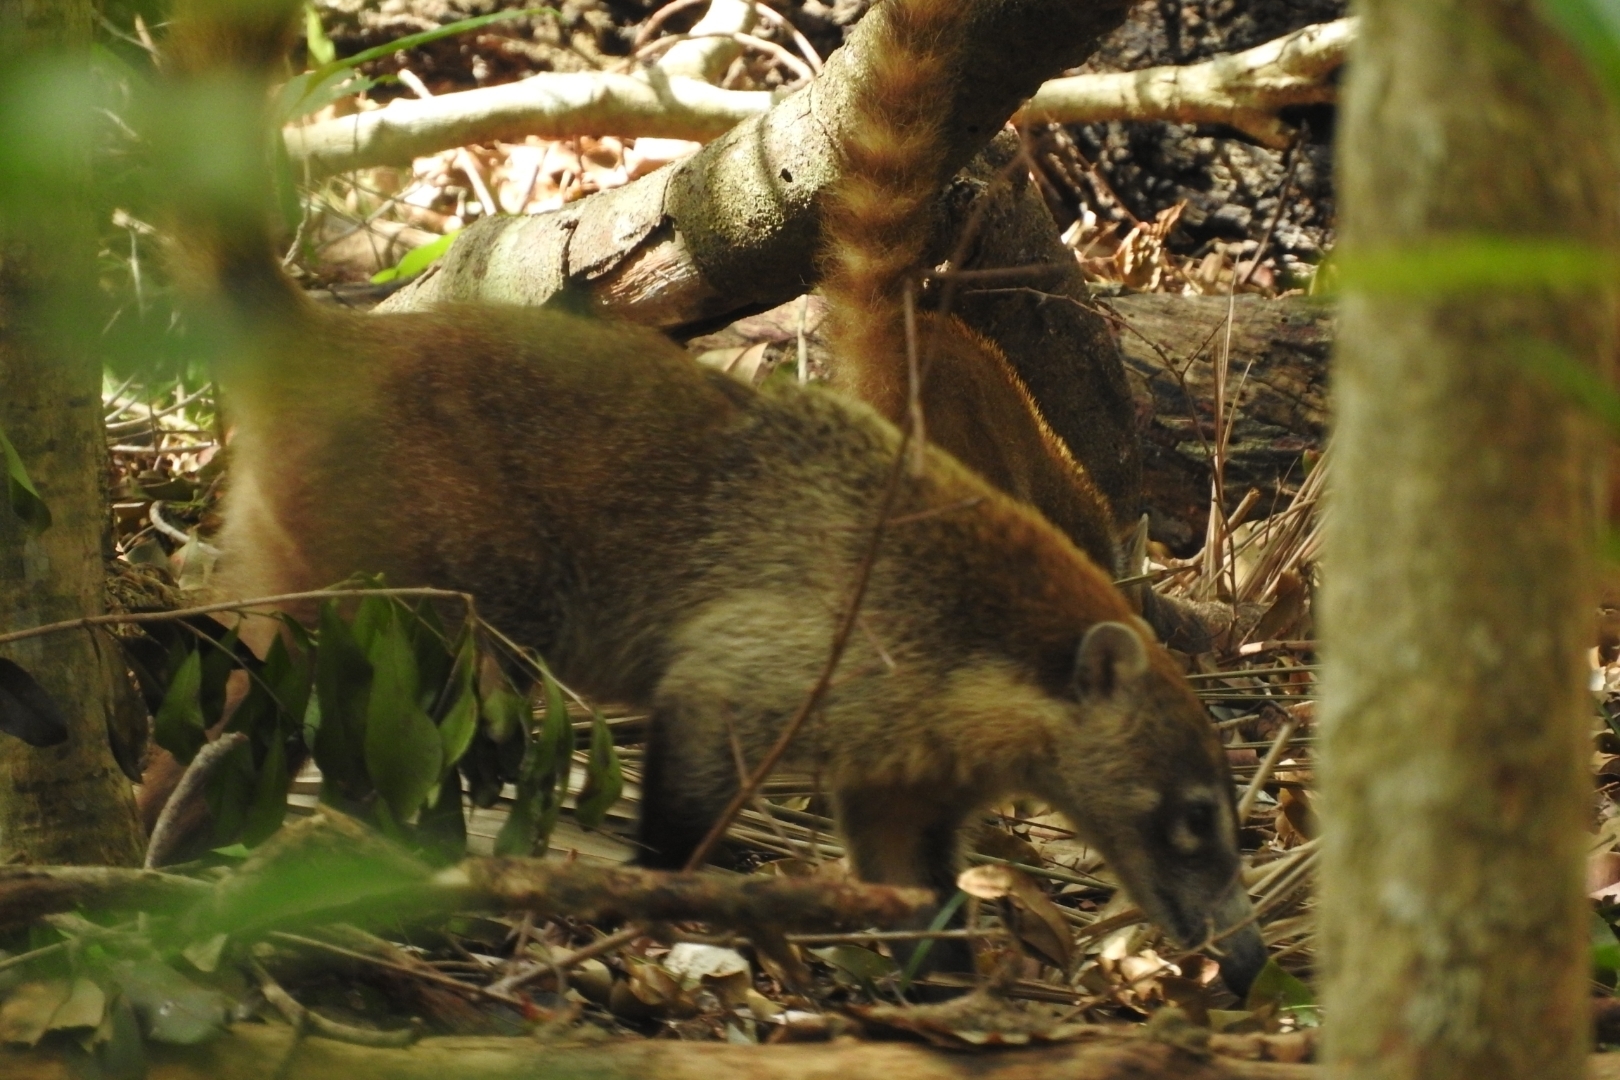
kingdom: Animalia
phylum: Chordata
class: Mammalia
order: Carnivora
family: Procyonidae
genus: Nasua
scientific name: Nasua narica
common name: White-nosed coati
